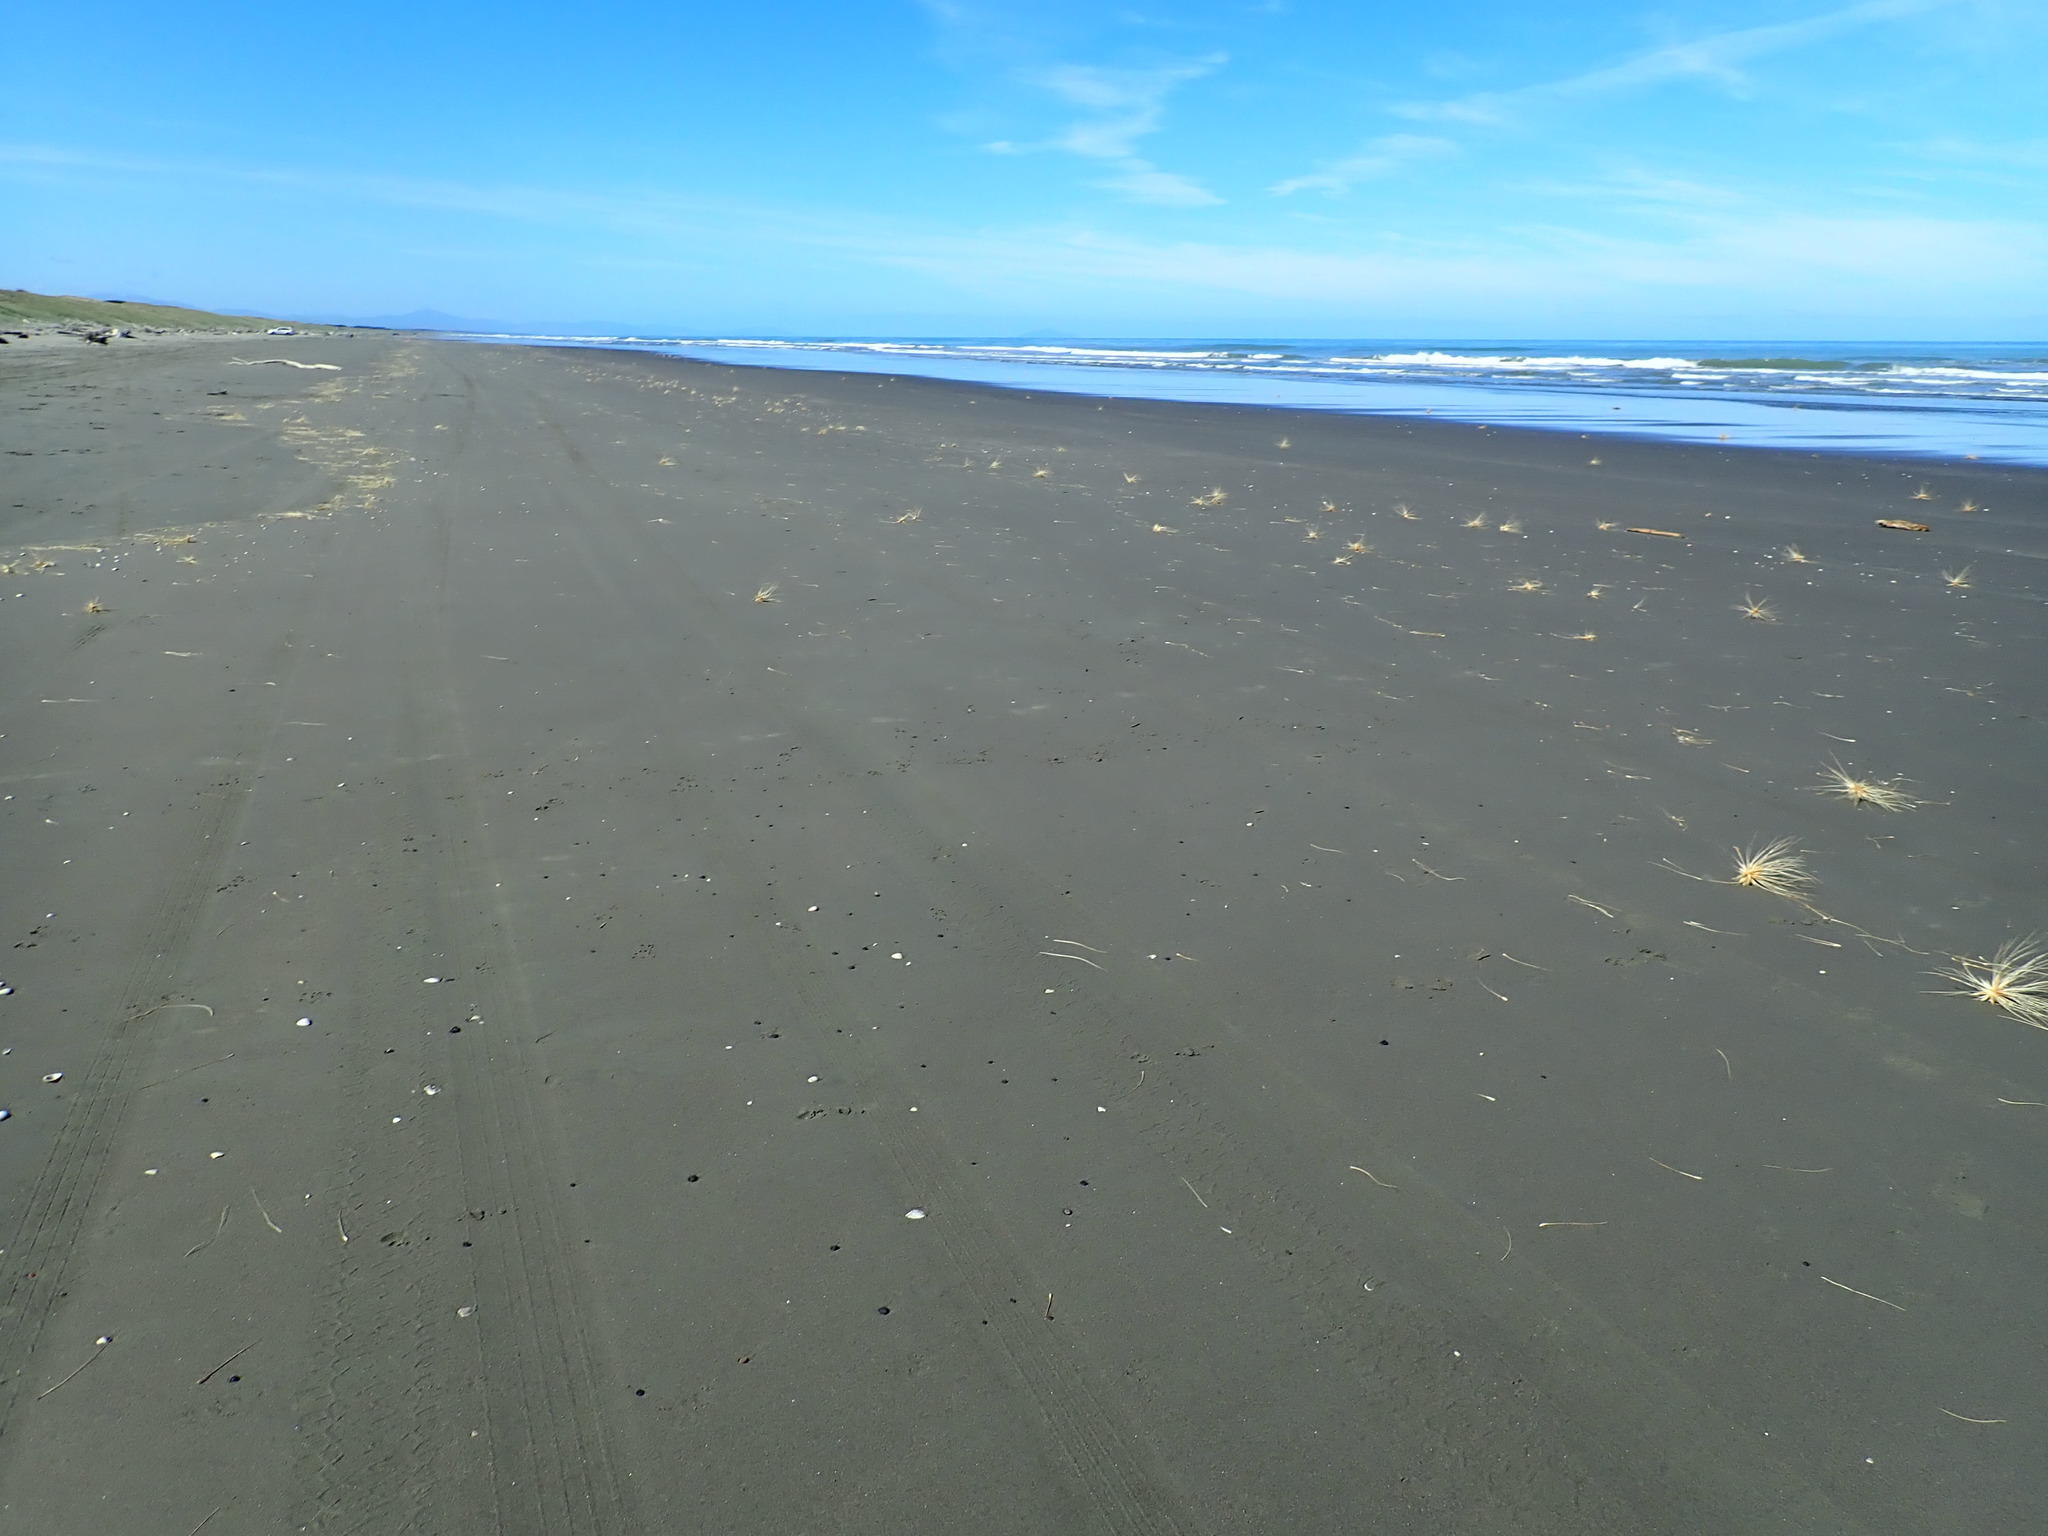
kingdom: Plantae
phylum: Tracheophyta
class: Liliopsida
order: Poales
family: Poaceae
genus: Spinifex
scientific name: Spinifex sericeus
